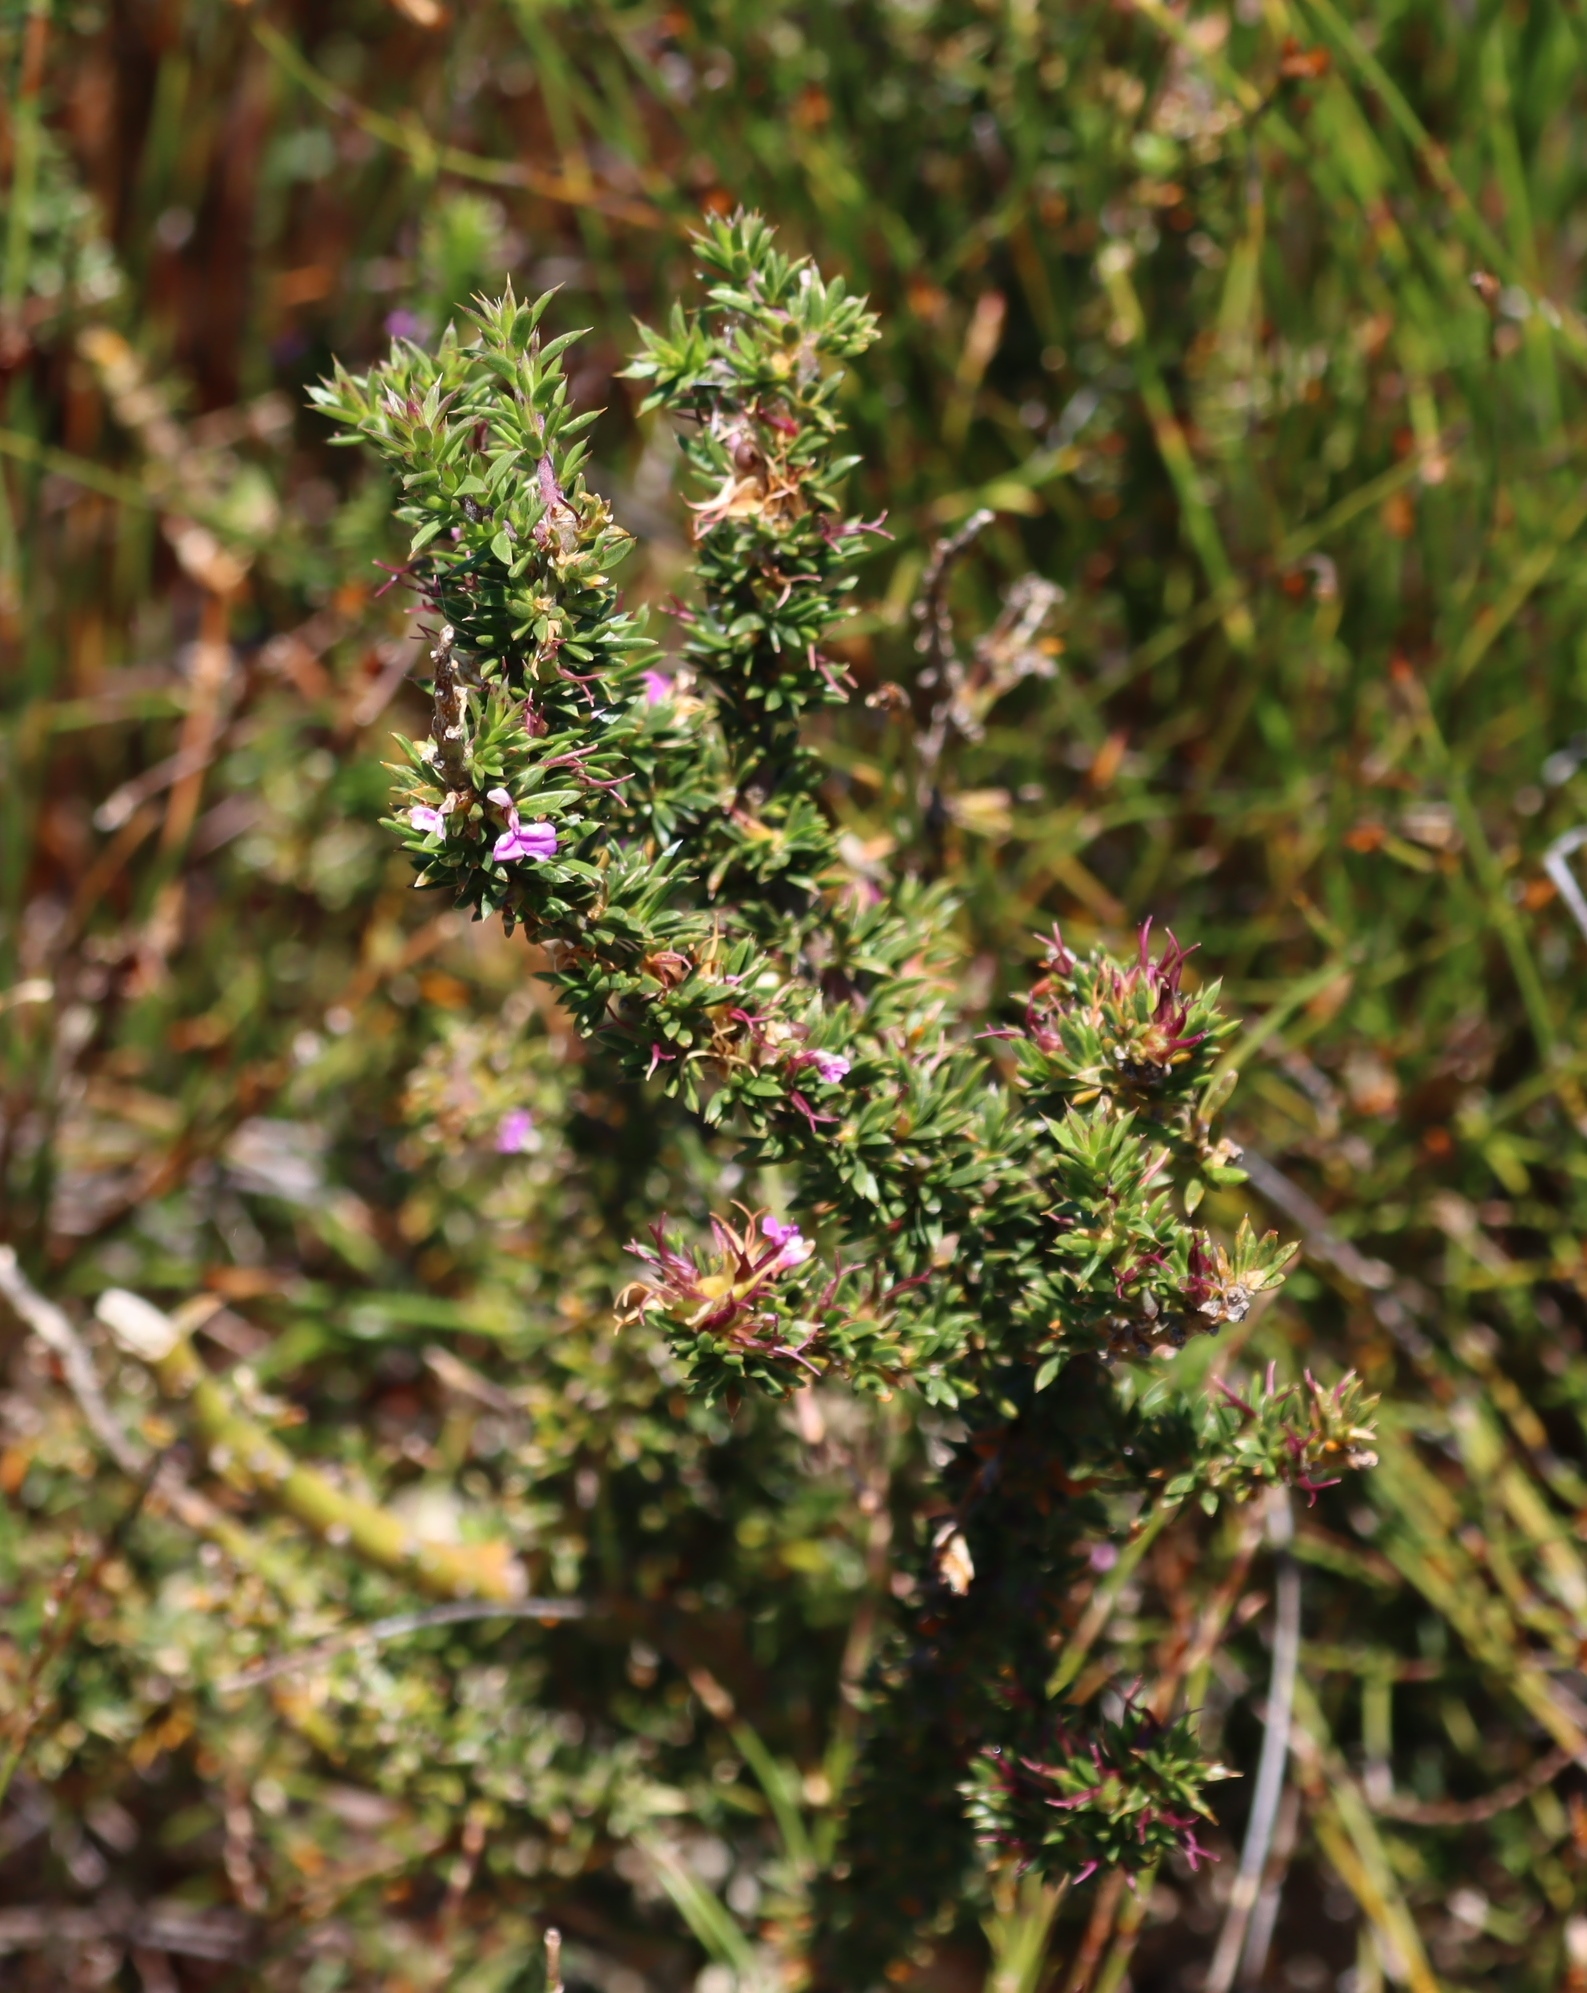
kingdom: Plantae
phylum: Tracheophyta
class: Magnoliopsida
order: Fabales
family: Polygalaceae
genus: Muraltia
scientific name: Muraltia heisteria
